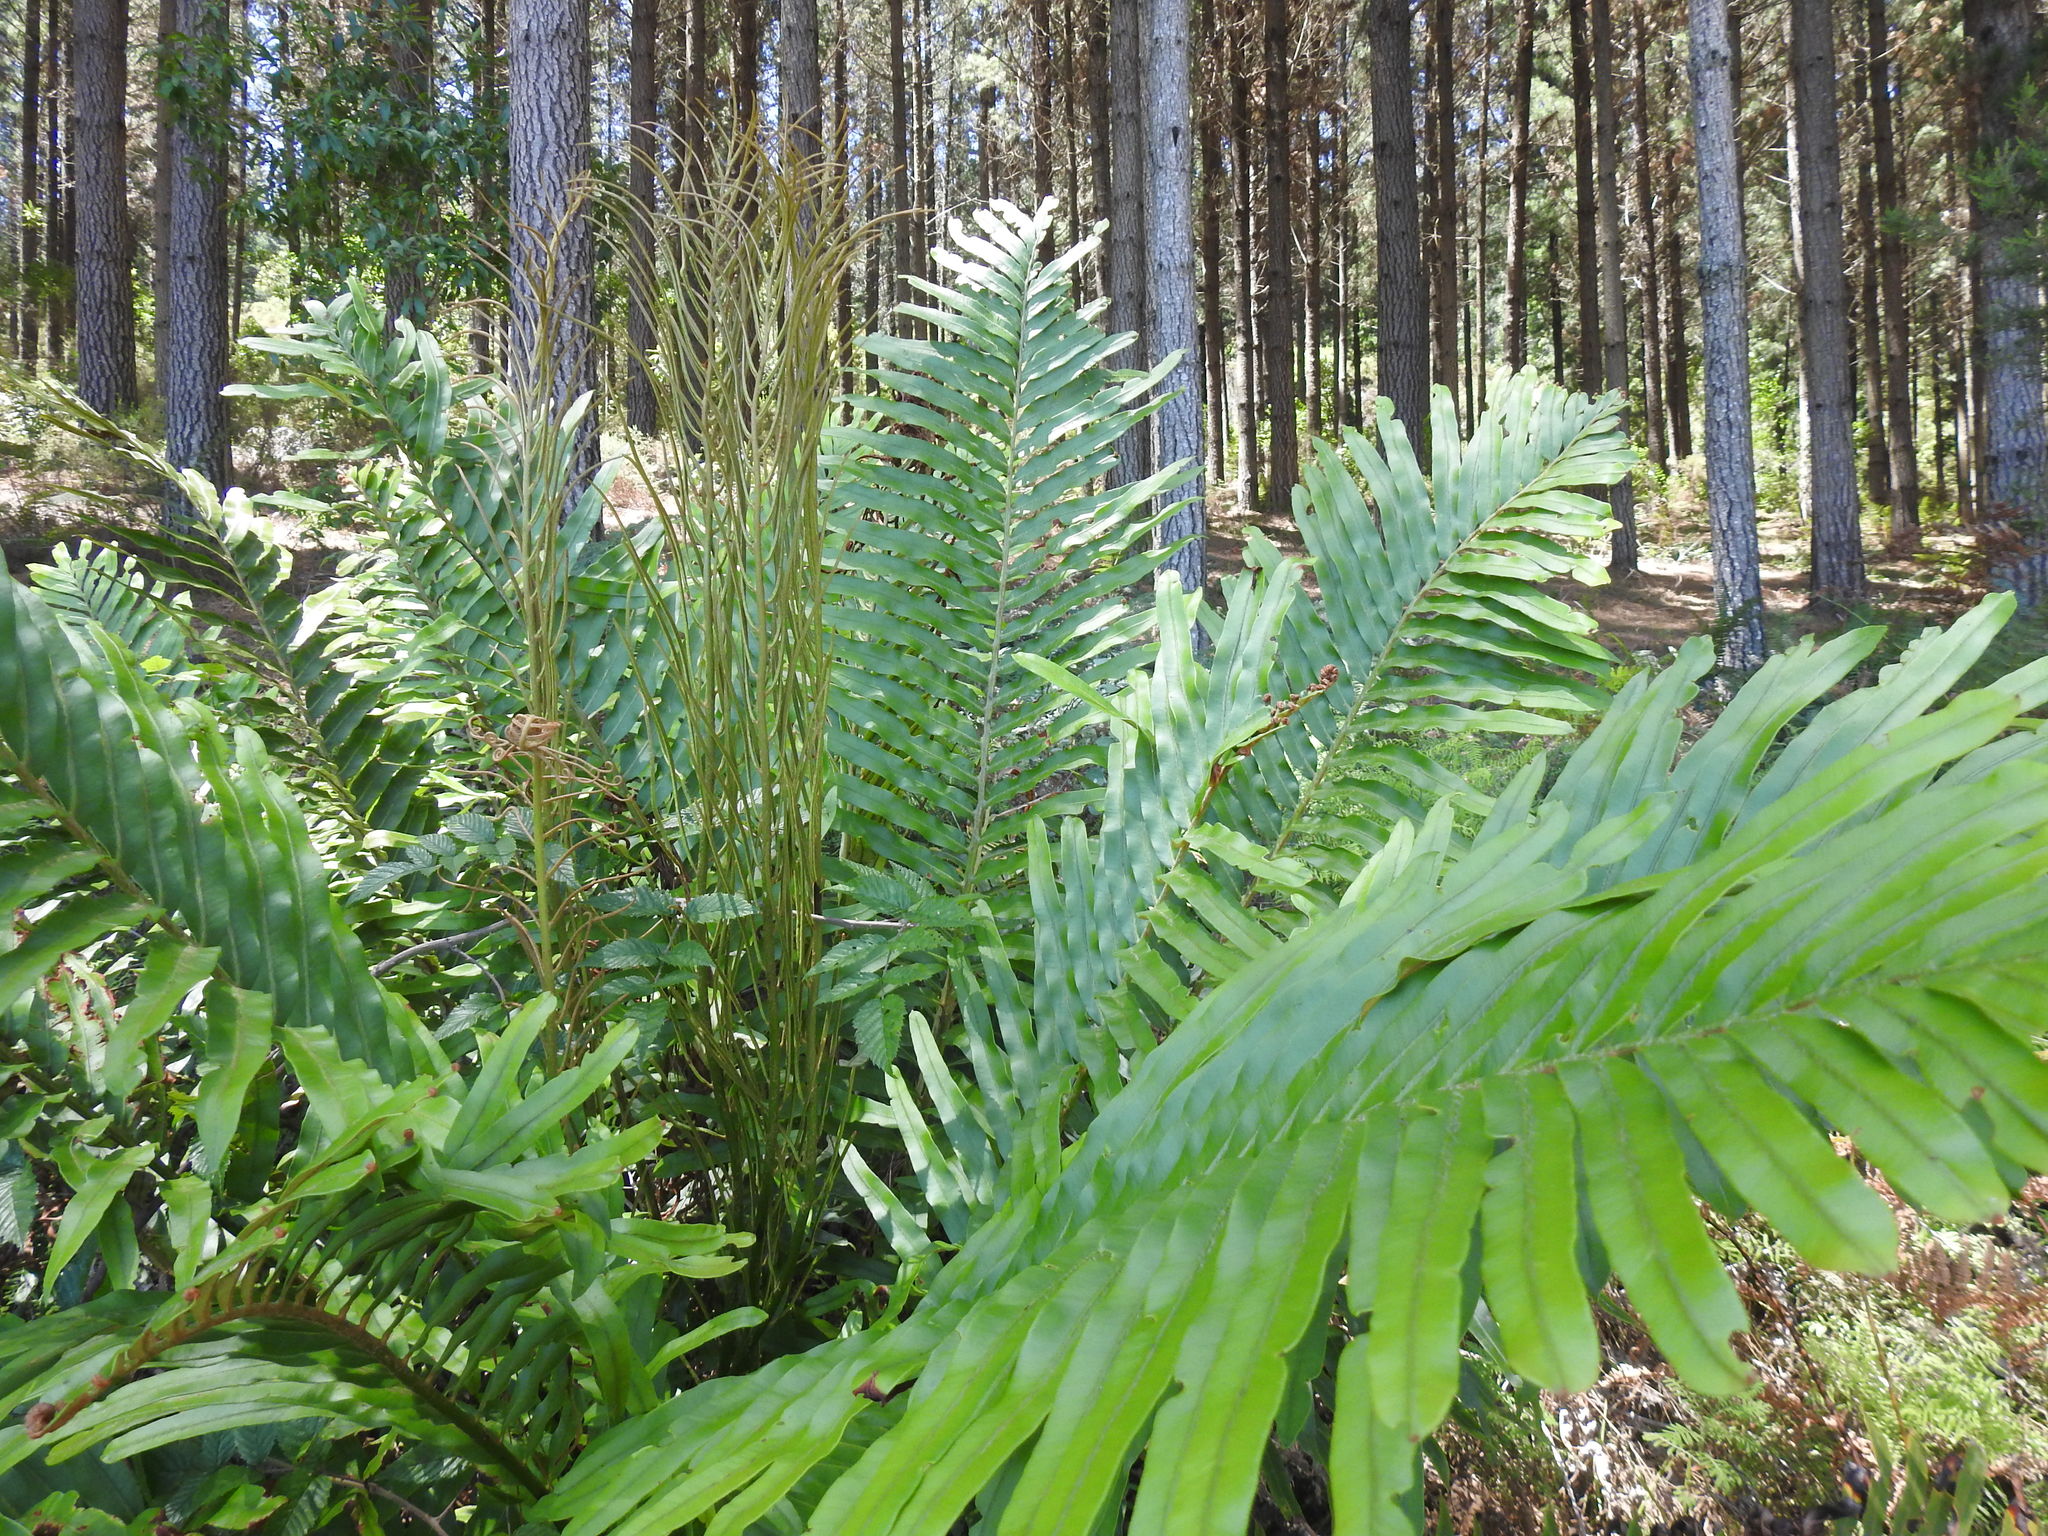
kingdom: Plantae
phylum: Tracheophyta
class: Polypodiopsida
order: Polypodiales
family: Blechnaceae
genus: Lomariocycas
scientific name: Lomariocycas tabularis
